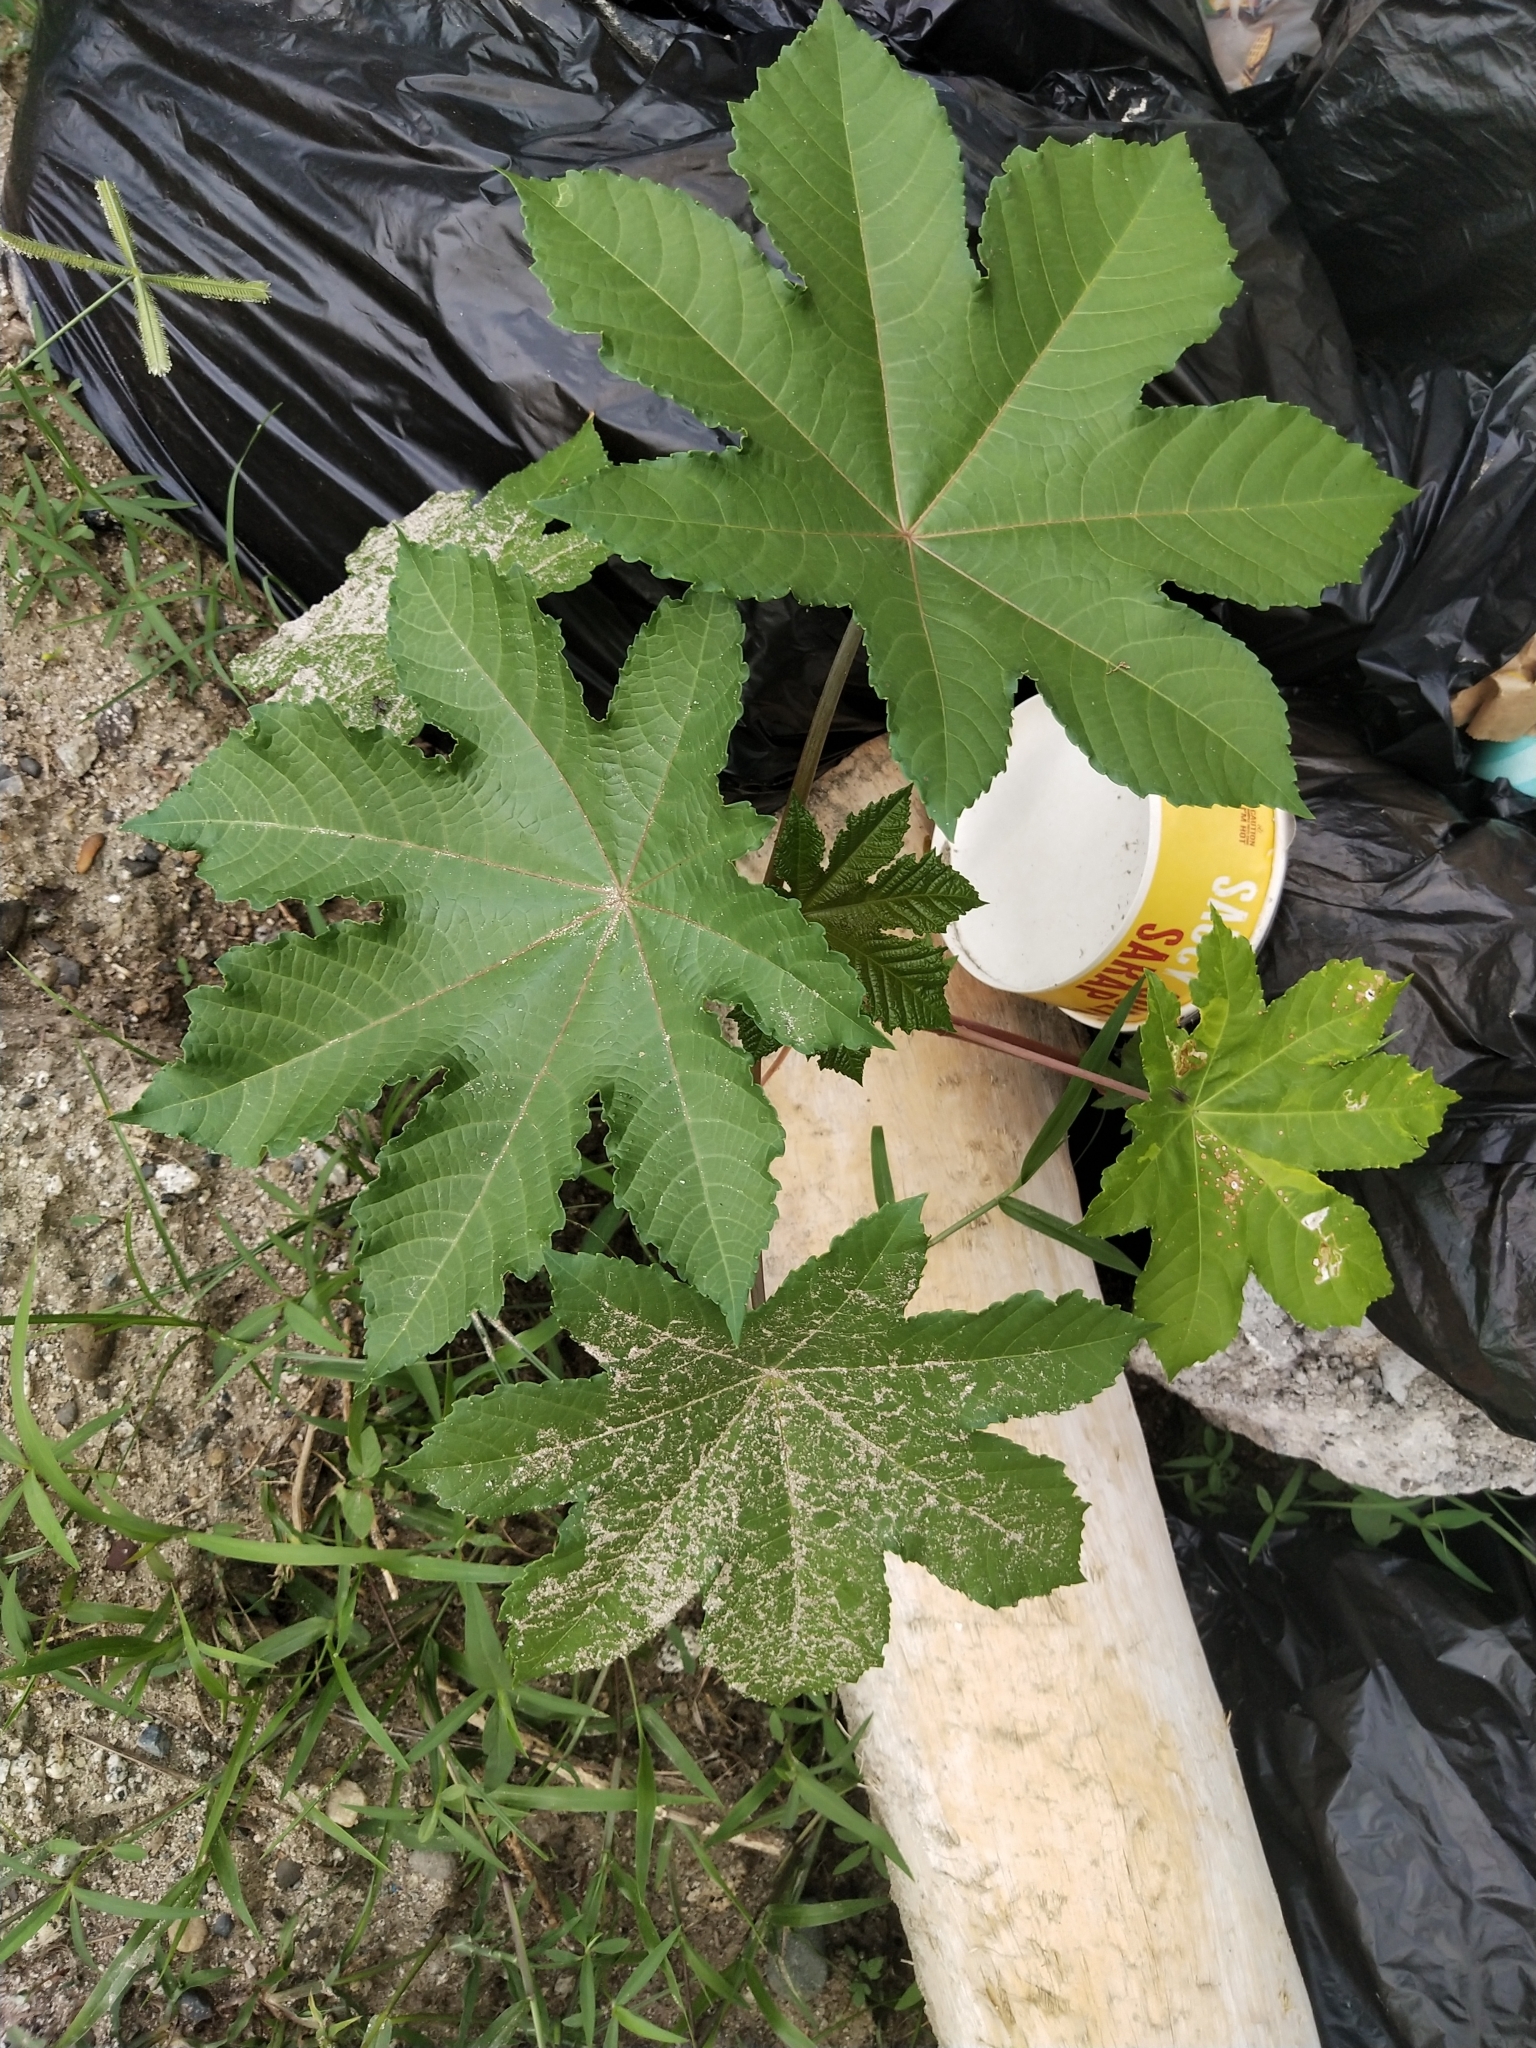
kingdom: Plantae
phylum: Tracheophyta
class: Magnoliopsida
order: Malpighiales
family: Euphorbiaceae
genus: Ricinus
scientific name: Ricinus communis
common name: Castor-oil-plant
